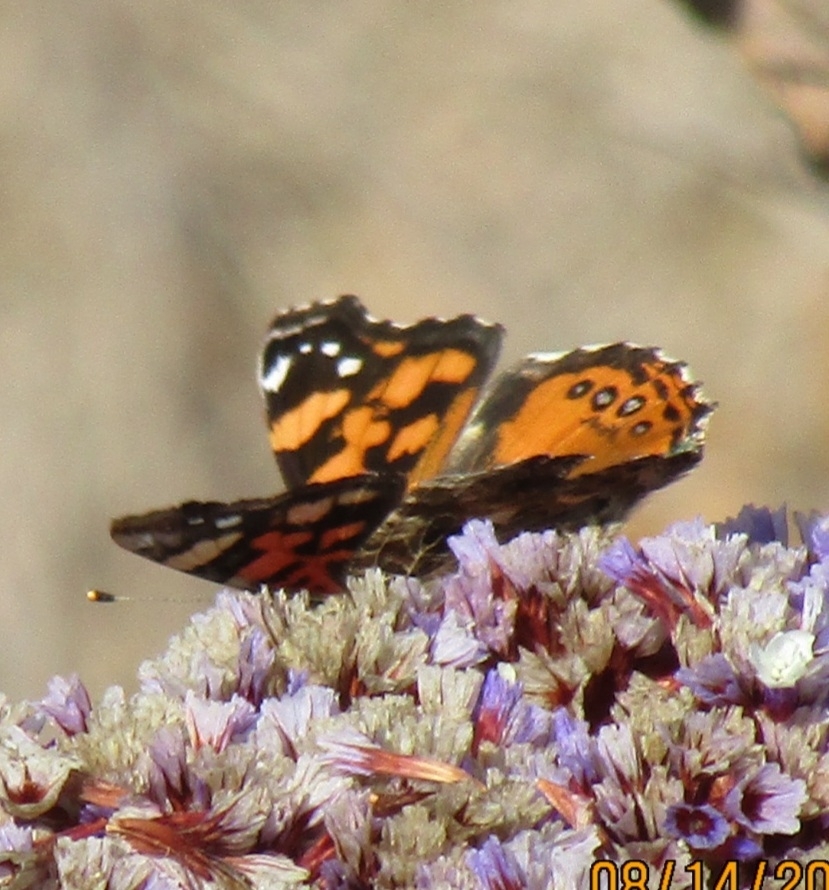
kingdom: Animalia
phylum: Arthropoda
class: Insecta
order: Lepidoptera
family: Nymphalidae
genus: Vanessa
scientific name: Vanessa annabella
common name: West coast lady
